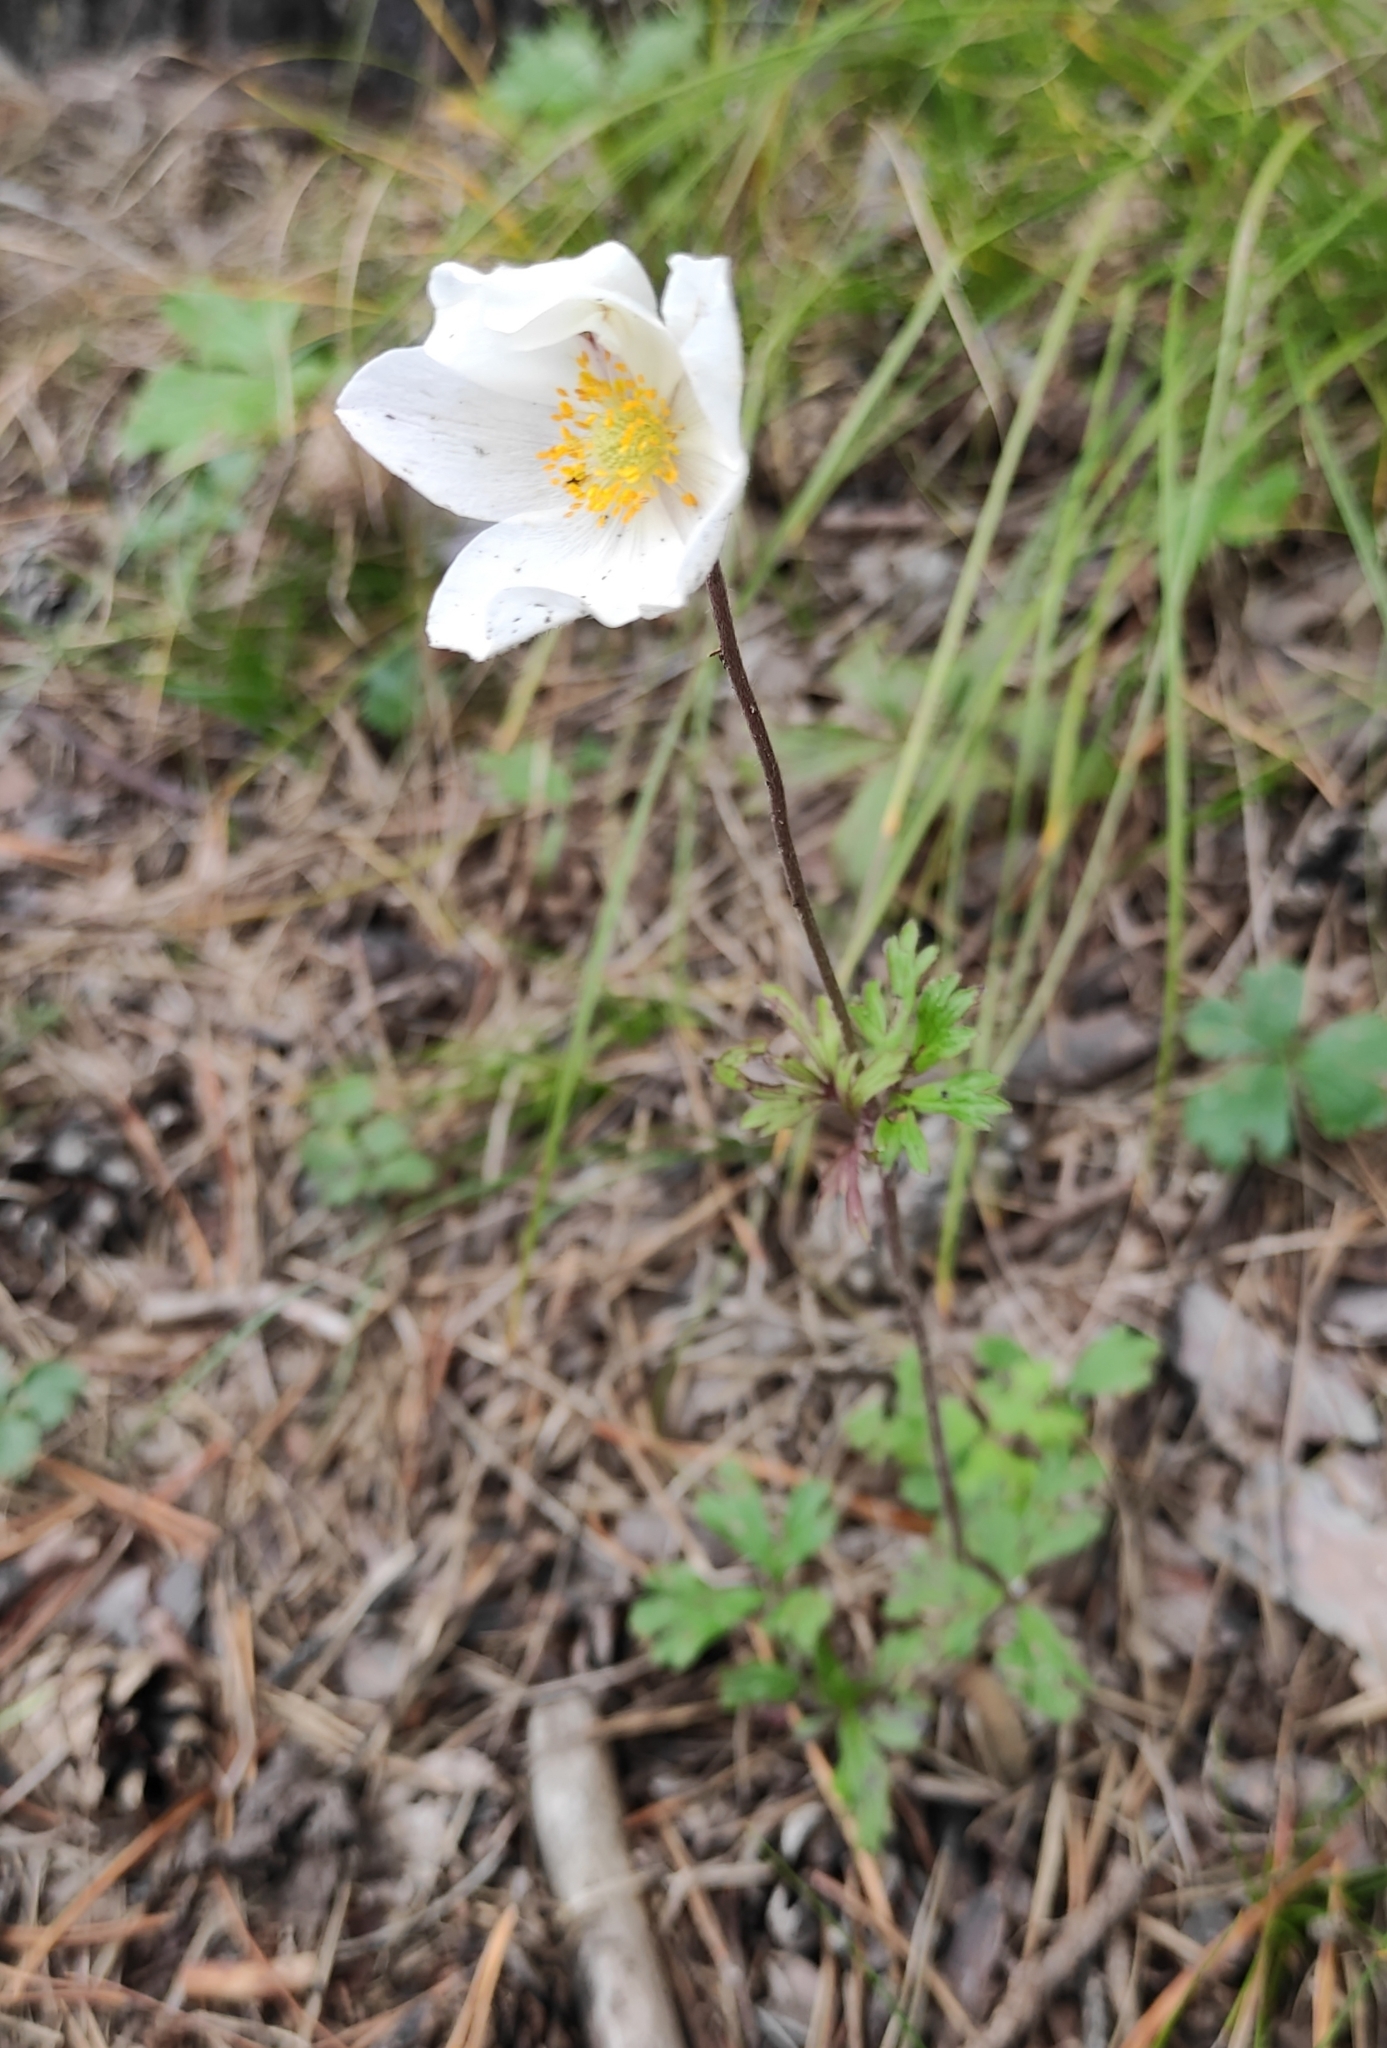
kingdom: Plantae
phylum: Tracheophyta
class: Magnoliopsida
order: Ranunculales
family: Ranunculaceae
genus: Anemone
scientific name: Anemone sylvestris
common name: Snowdrop anemone
